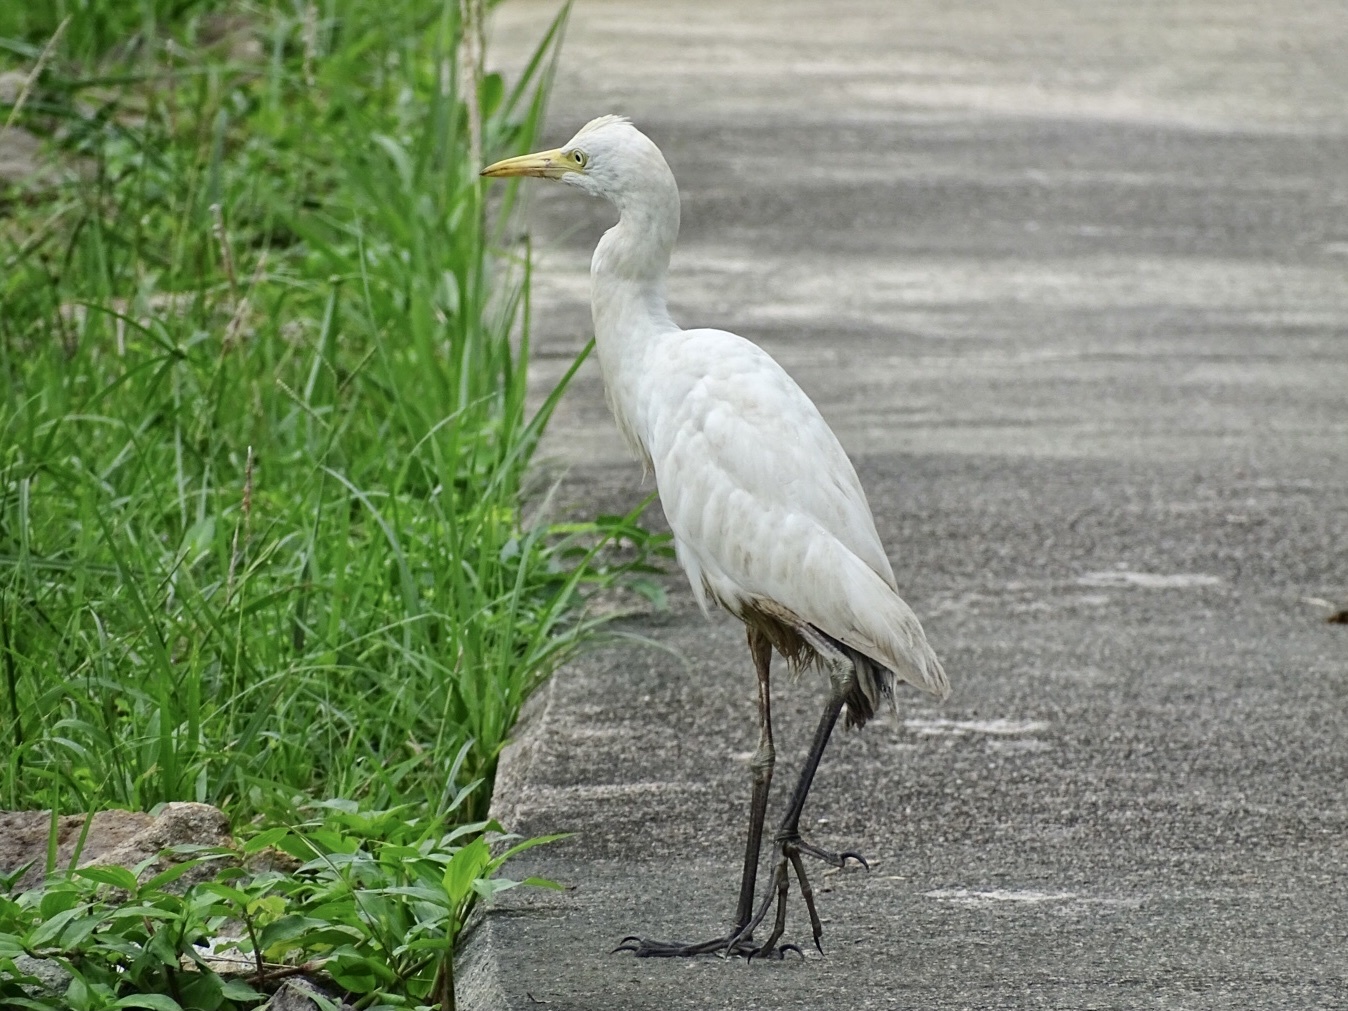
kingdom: Animalia
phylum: Chordata
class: Aves
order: Pelecaniformes
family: Ardeidae
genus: Bubulcus
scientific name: Bubulcus coromandus
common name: Eastern cattle egret
